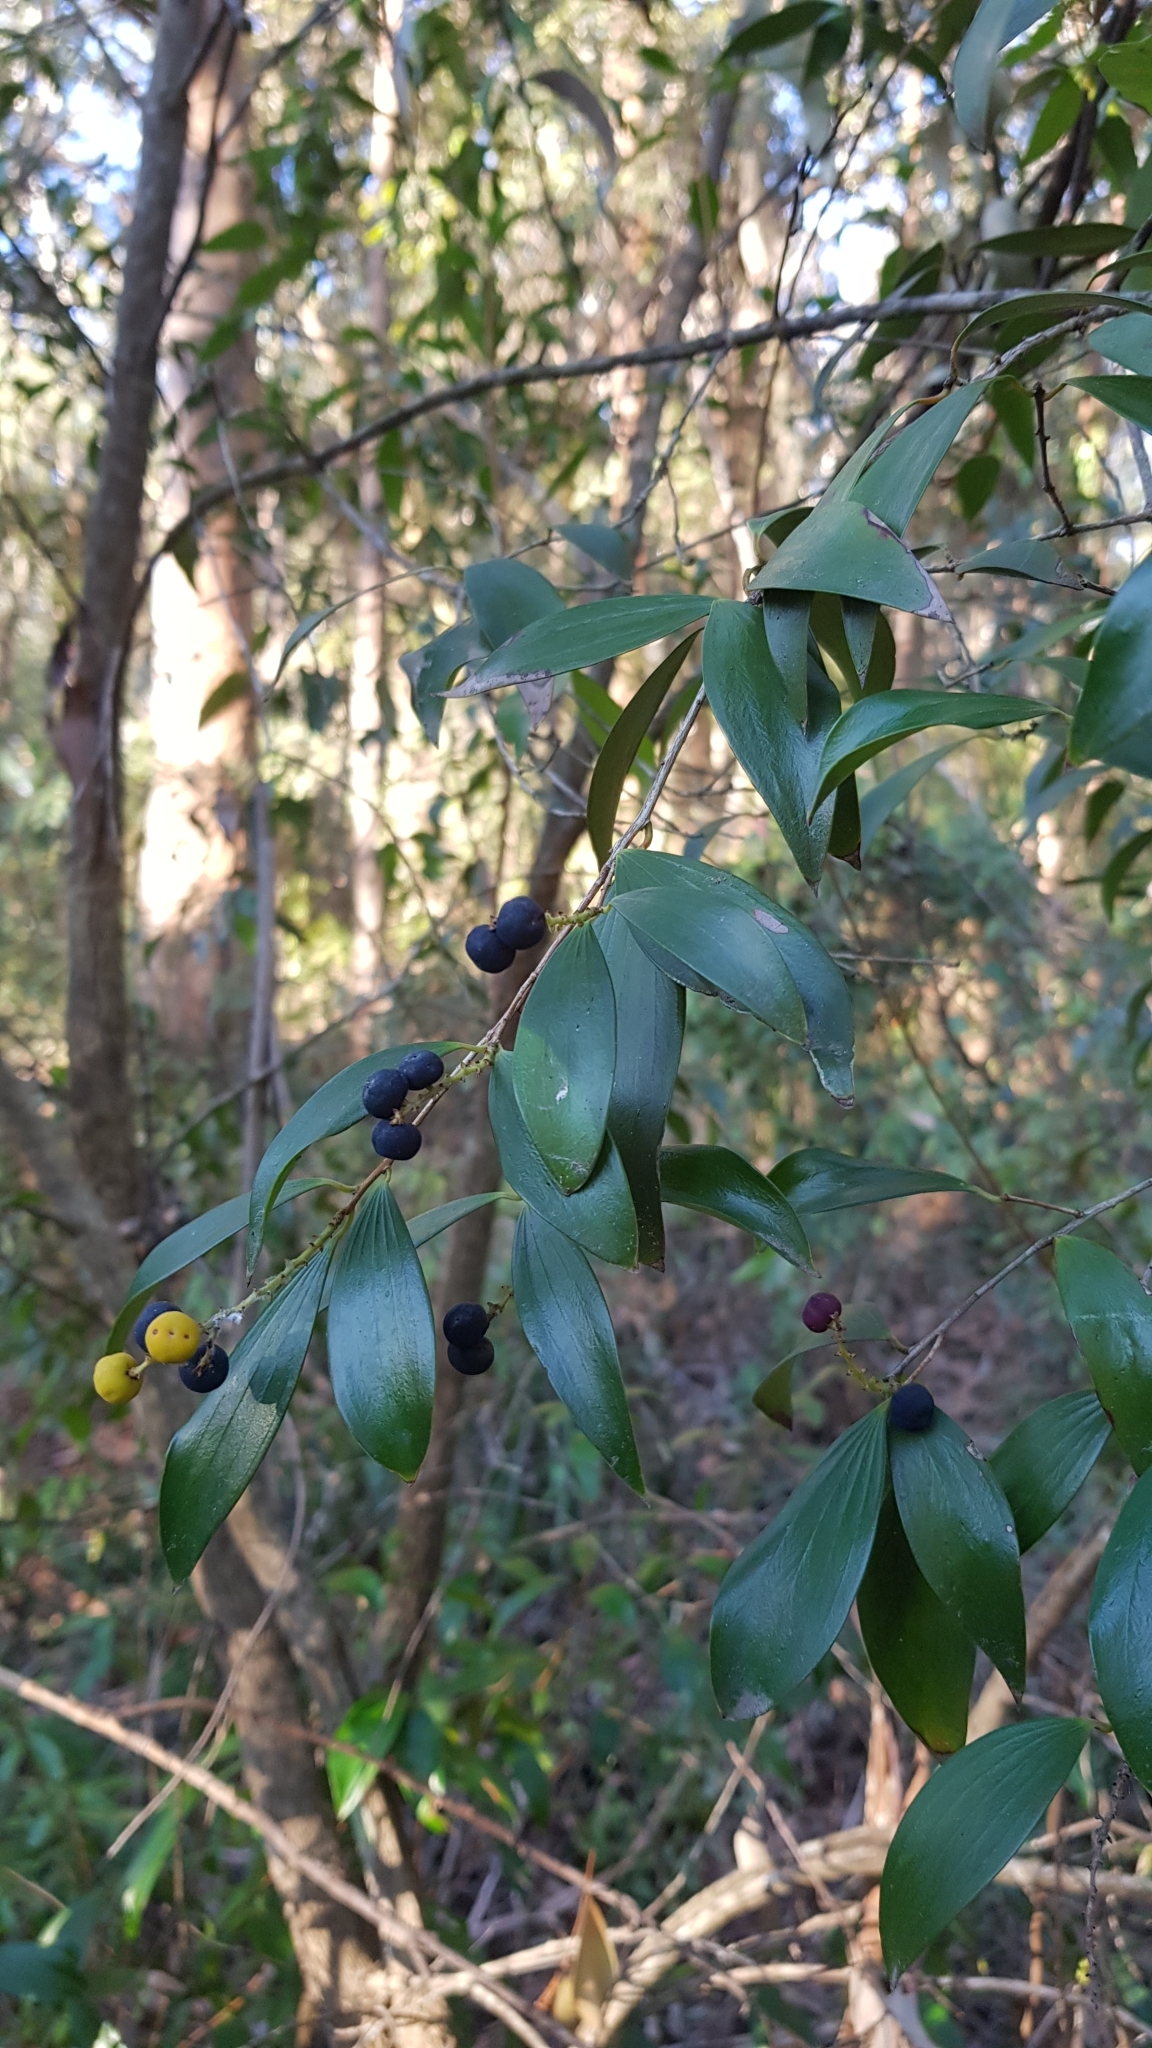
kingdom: Plantae
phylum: Tracheophyta
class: Magnoliopsida
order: Ericales
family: Ericaceae
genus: Trochocarpa
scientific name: Trochocarpa laurina
